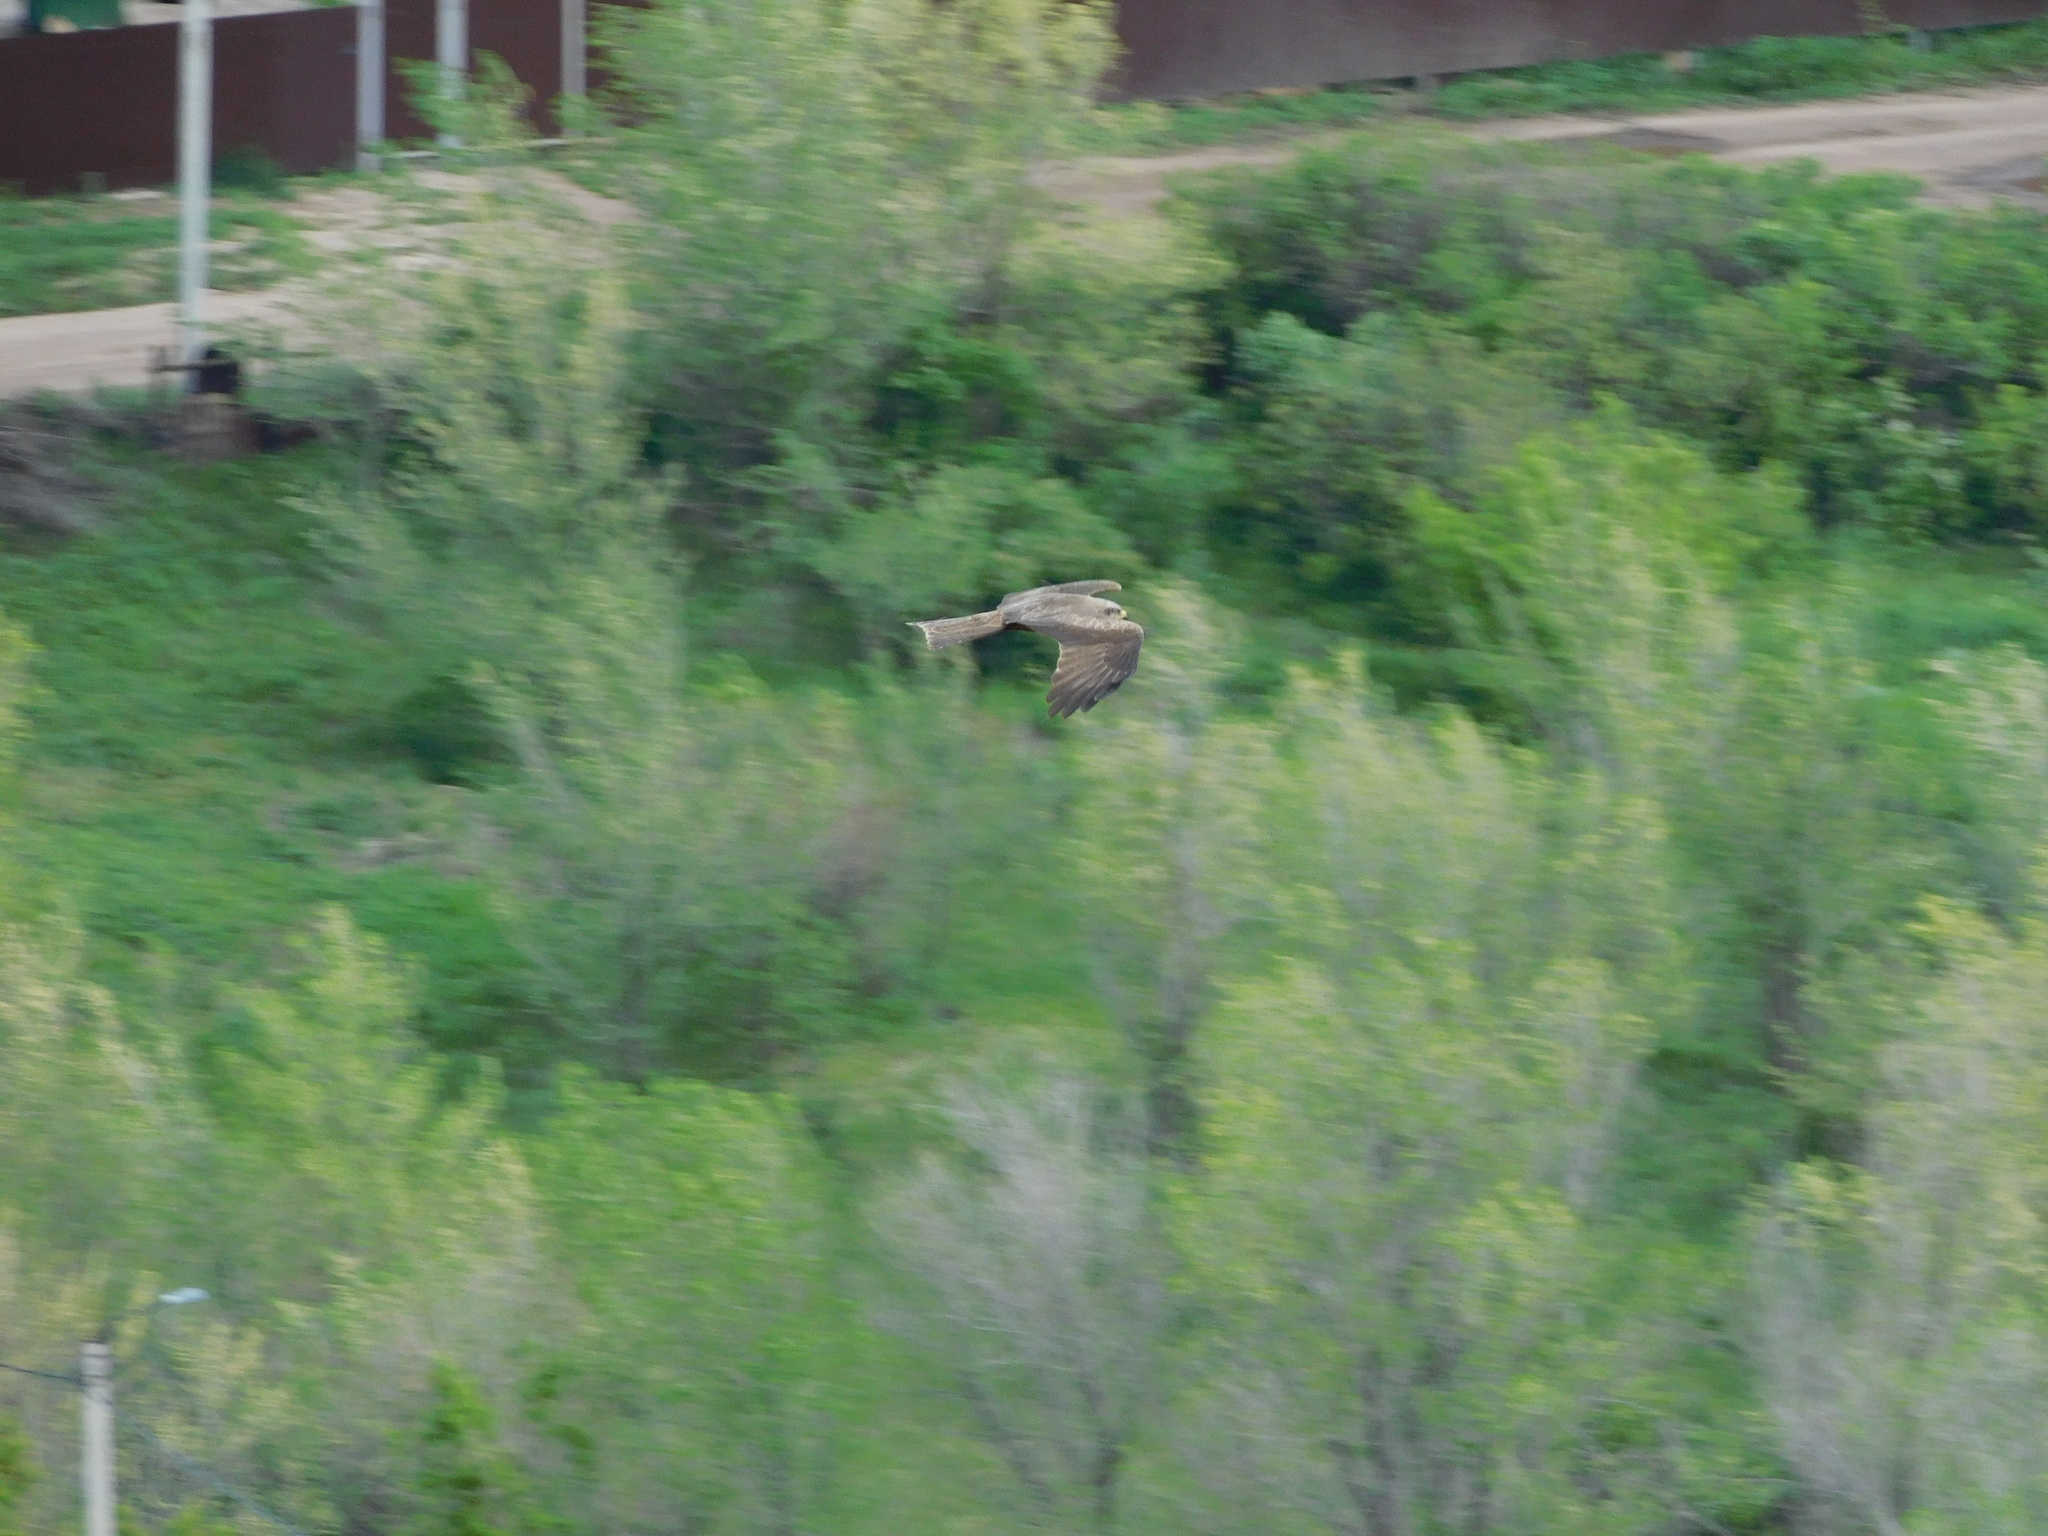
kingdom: Animalia
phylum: Chordata
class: Aves
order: Accipitriformes
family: Accipitridae
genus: Milvus
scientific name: Milvus migrans
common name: Black kite
